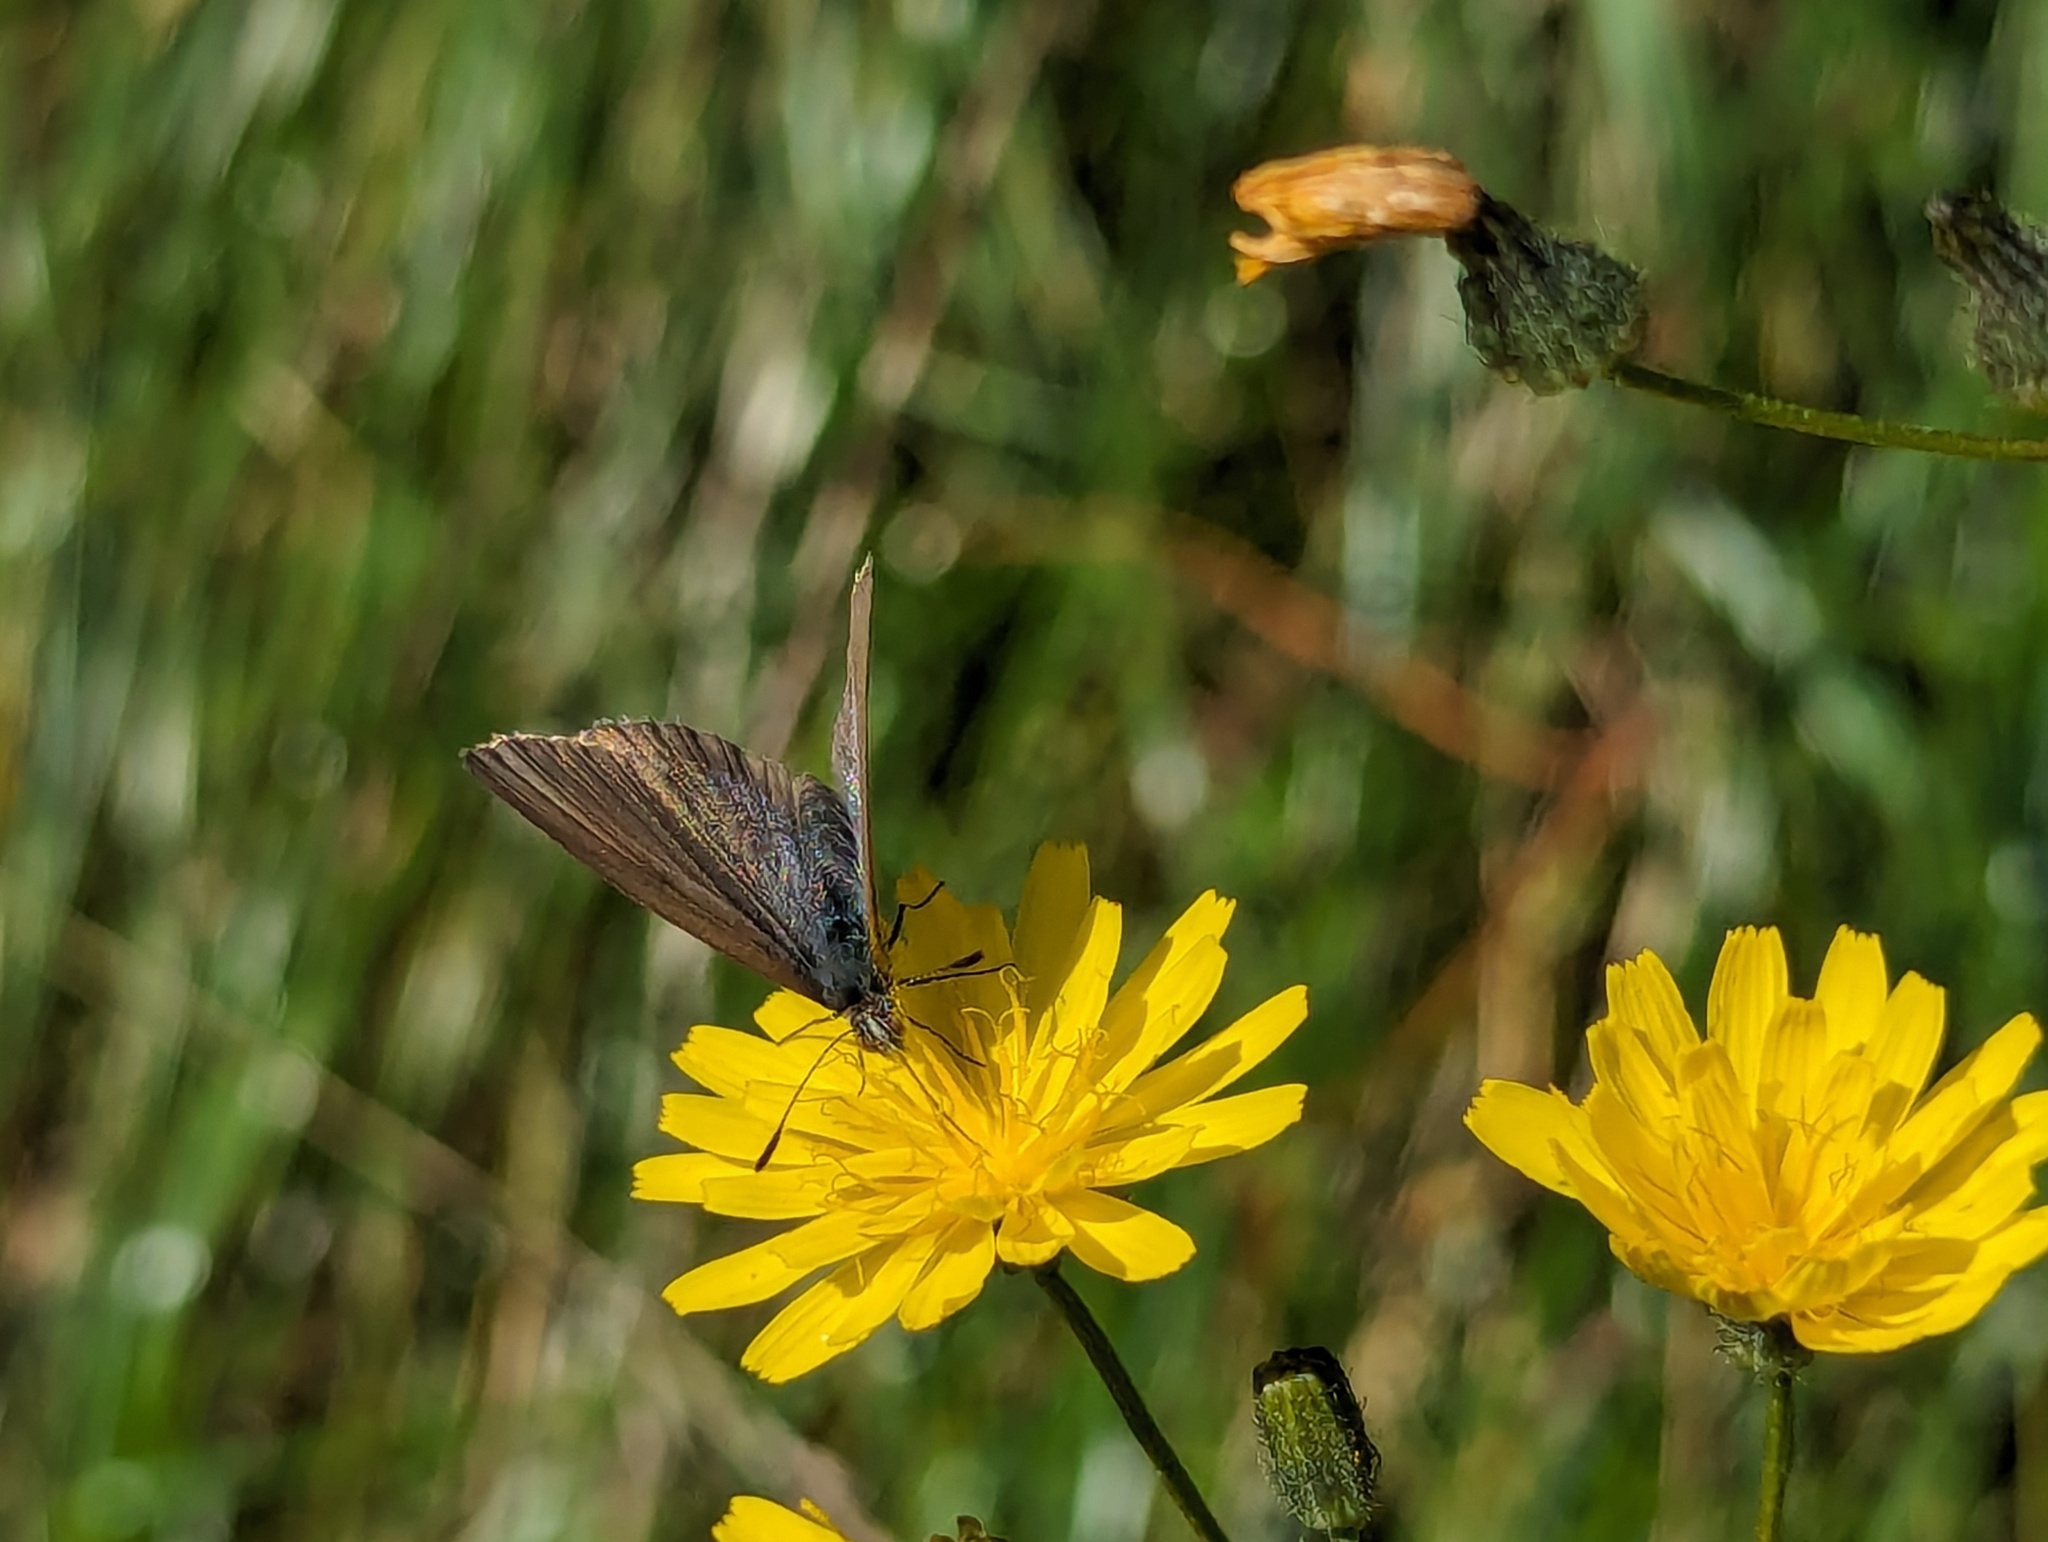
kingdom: Animalia
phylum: Arthropoda
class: Insecta
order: Lepidoptera
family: Lycaenidae
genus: Zizina
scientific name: Zizina labradus
